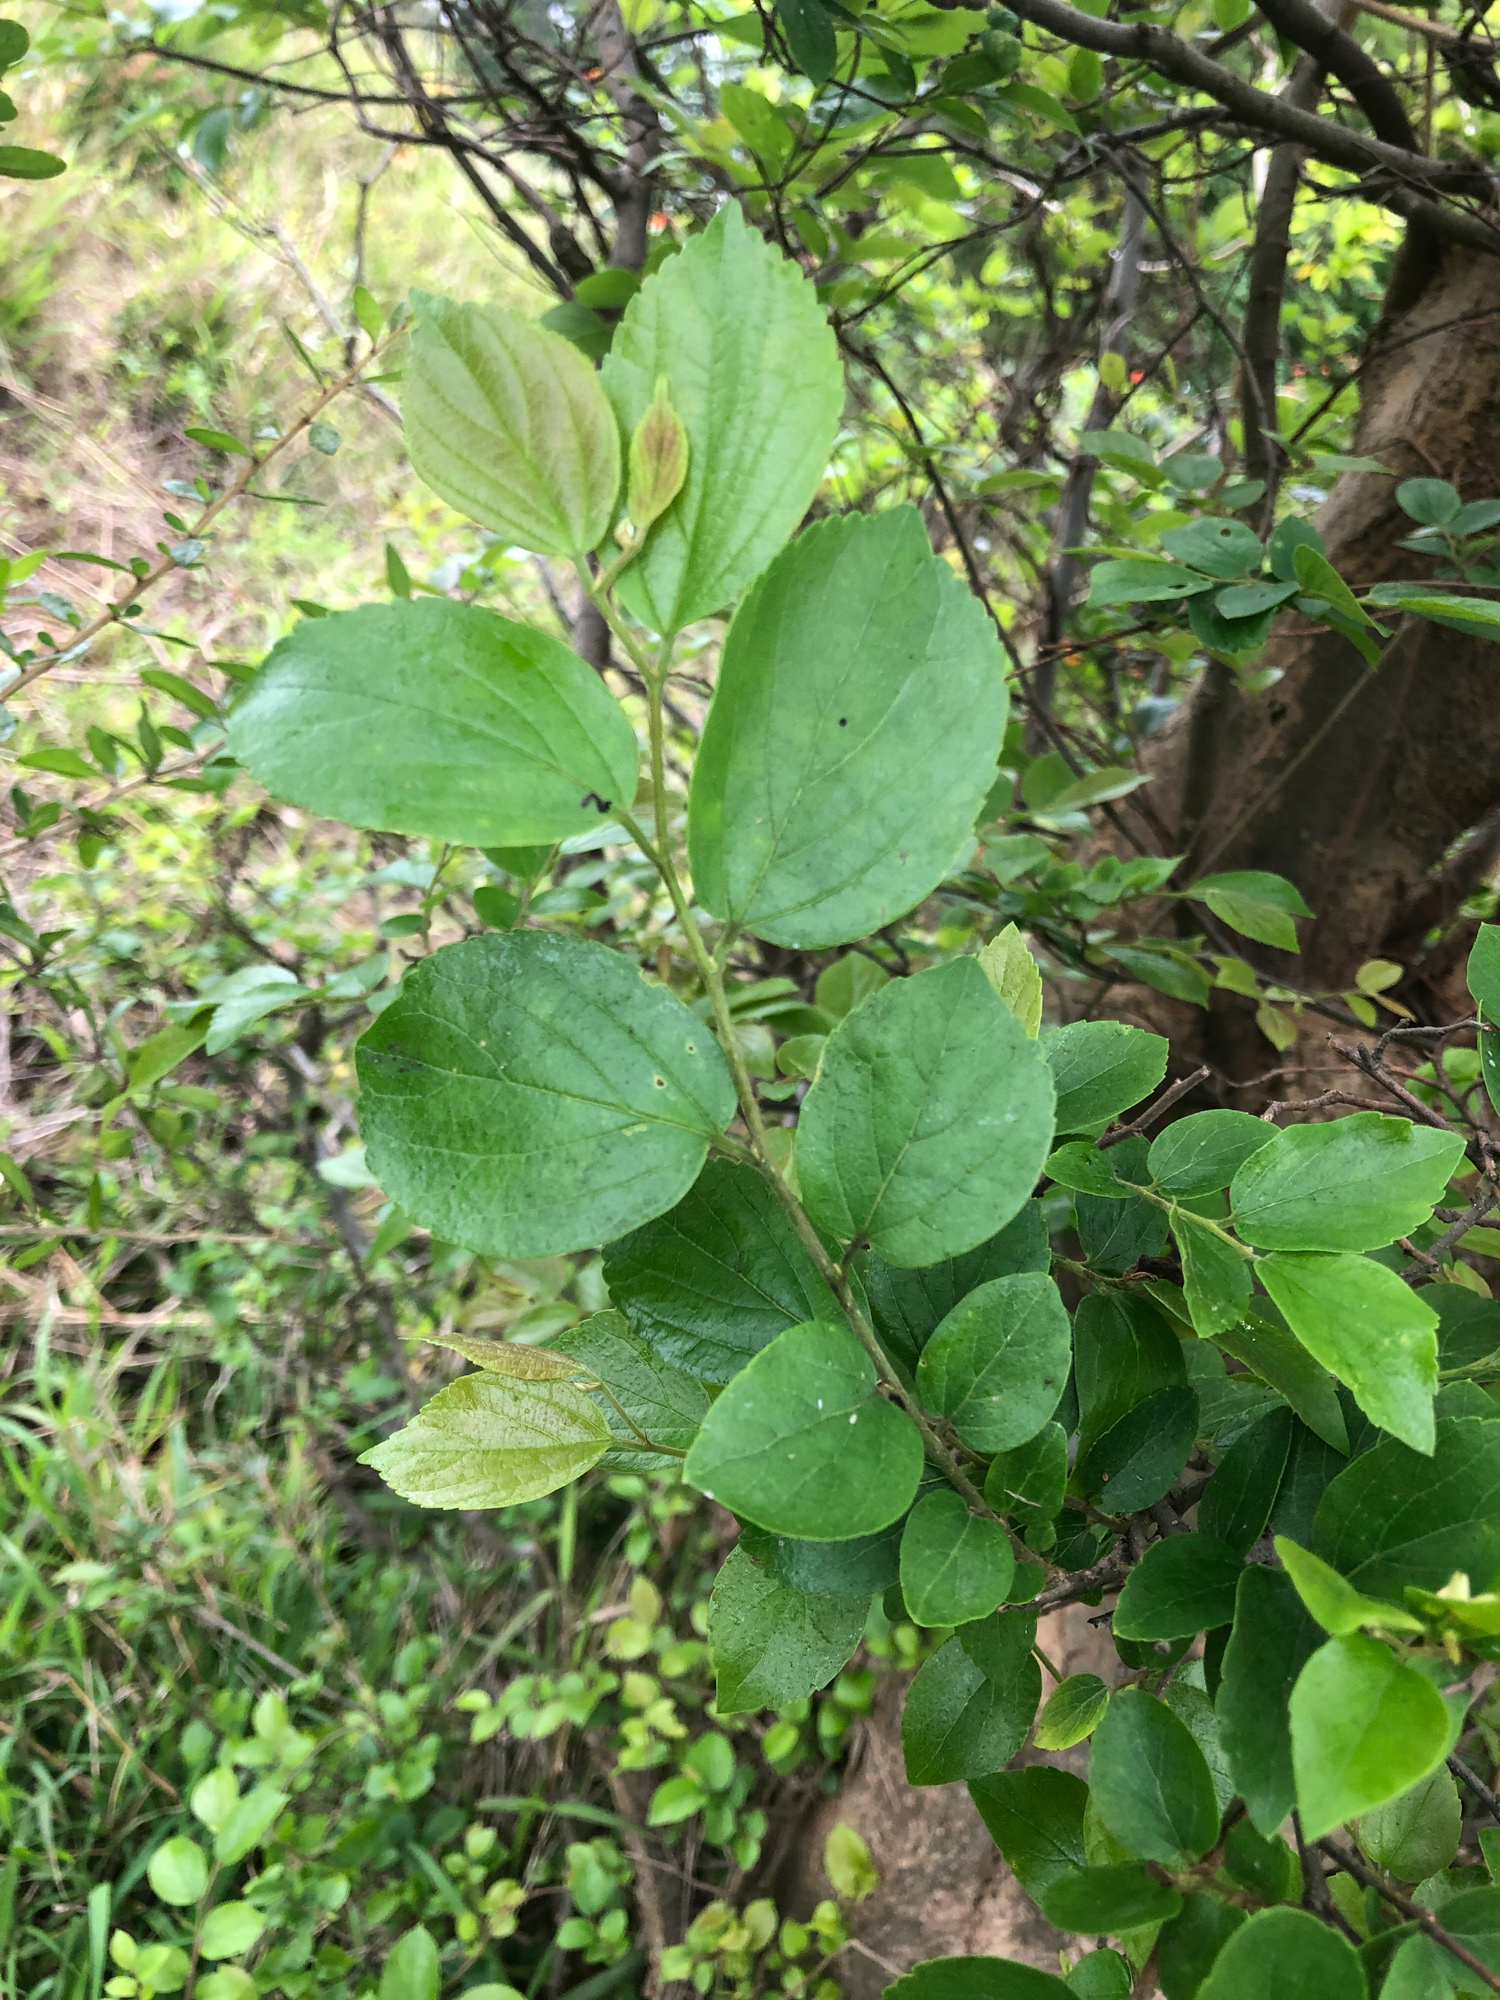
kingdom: Plantae
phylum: Tracheophyta
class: Magnoliopsida
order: Rosales
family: Cannabaceae
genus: Celtis
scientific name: Celtis sinensis
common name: Chinese hackberry
